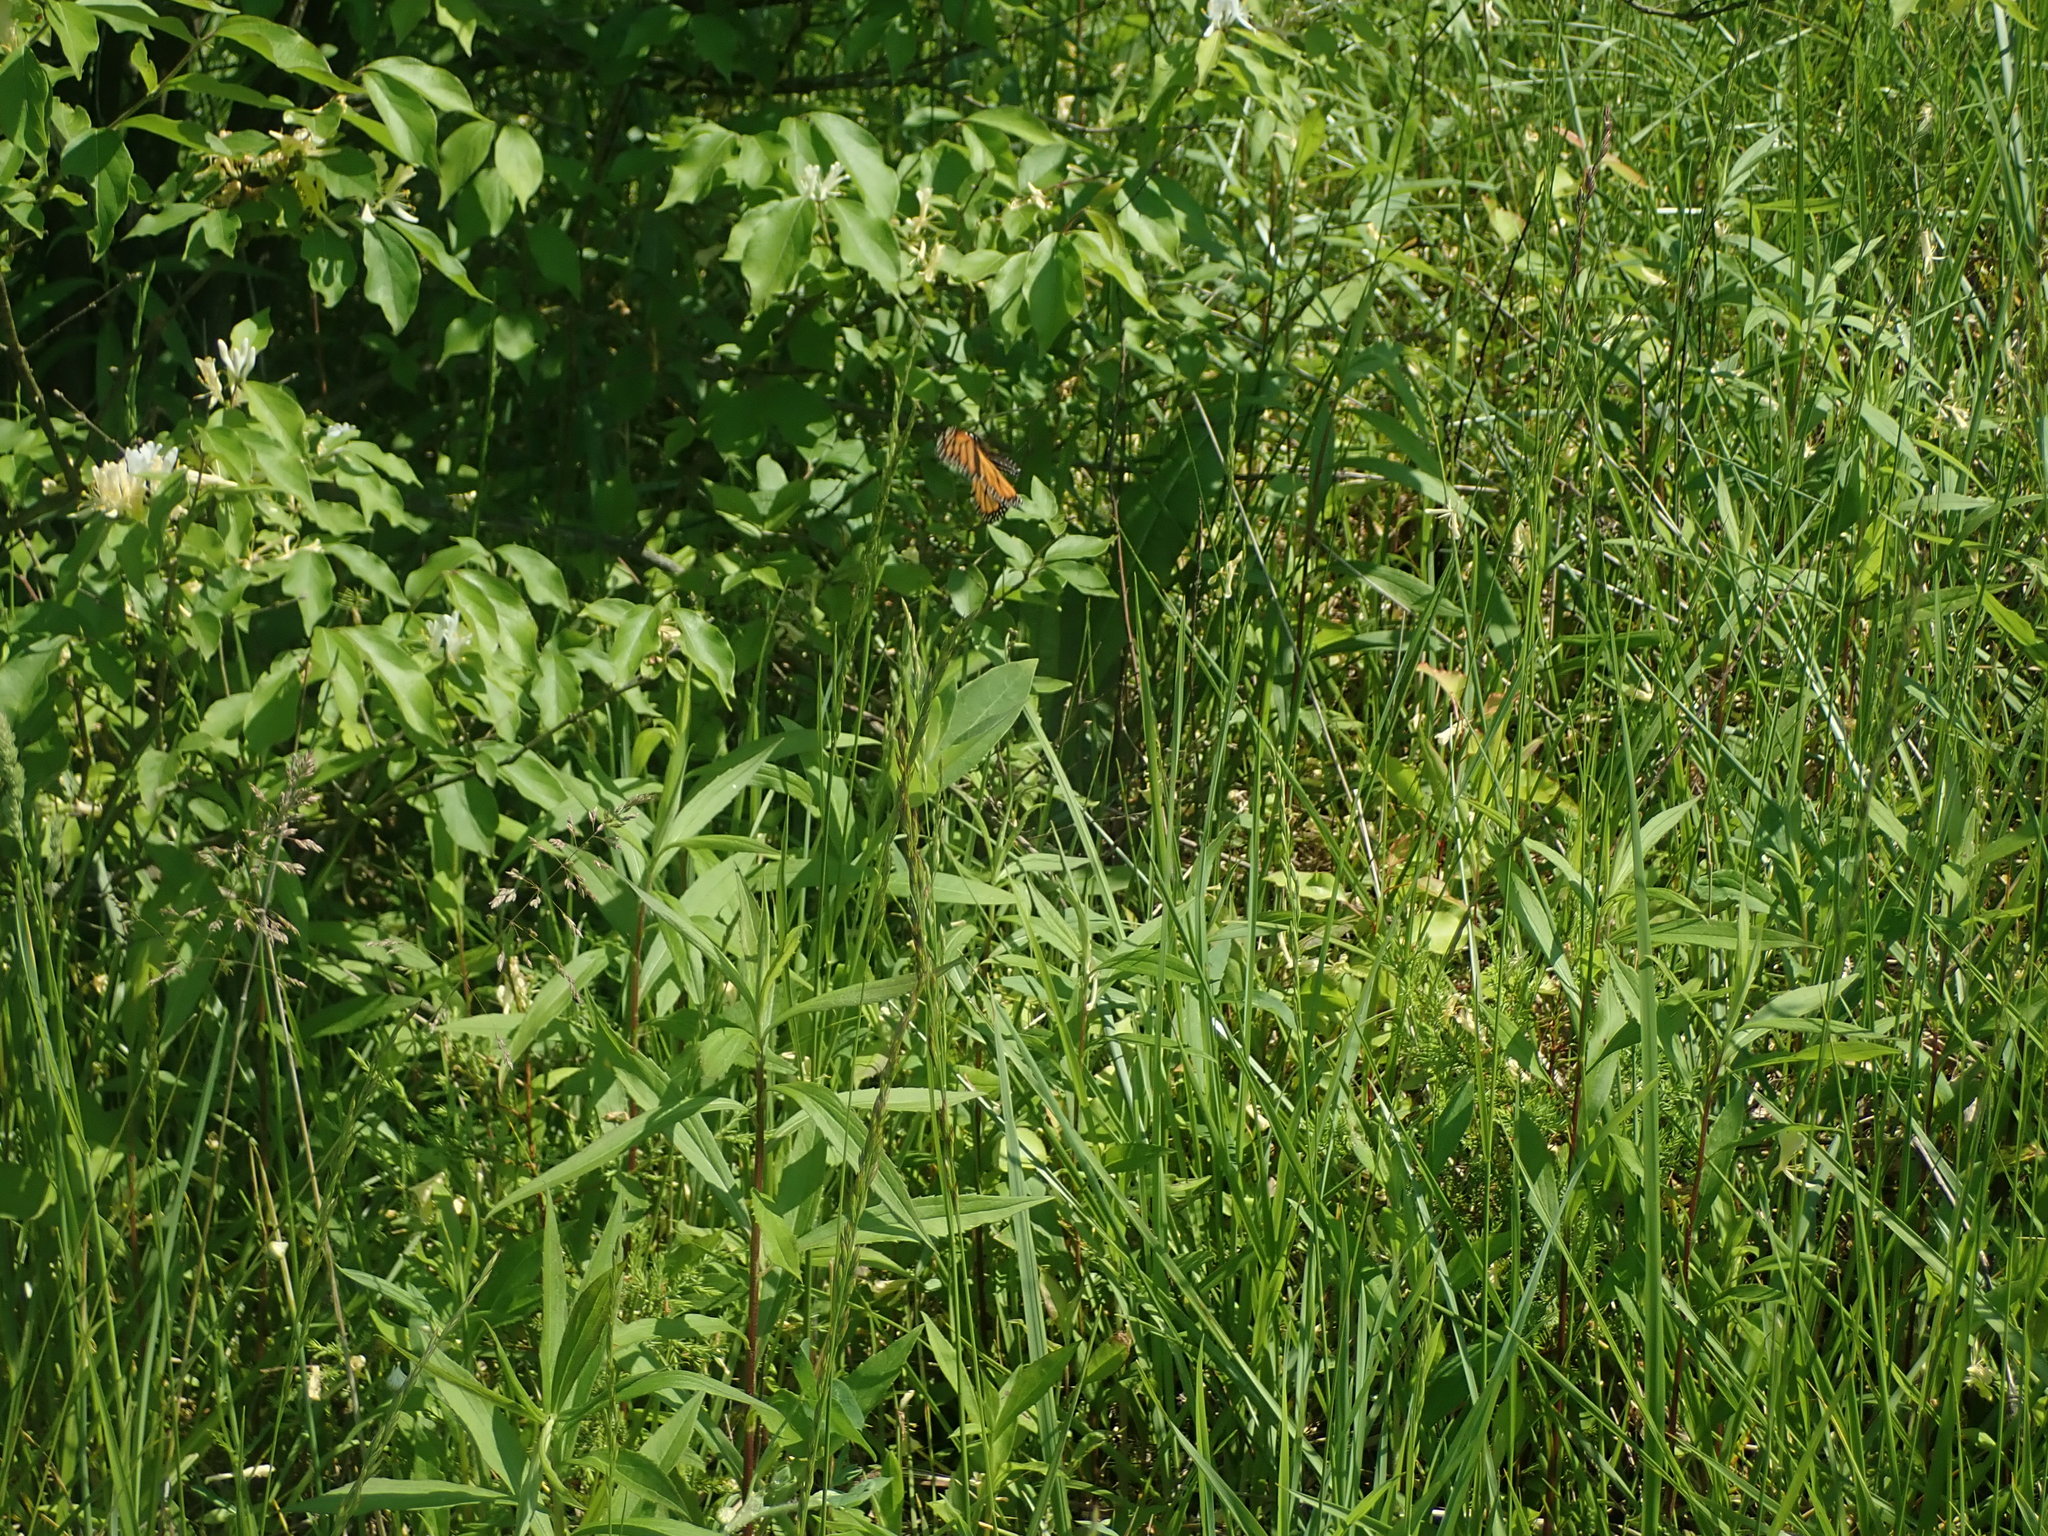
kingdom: Animalia
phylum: Arthropoda
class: Insecta
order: Lepidoptera
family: Nymphalidae
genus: Danaus
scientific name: Danaus plexippus
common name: Monarch
